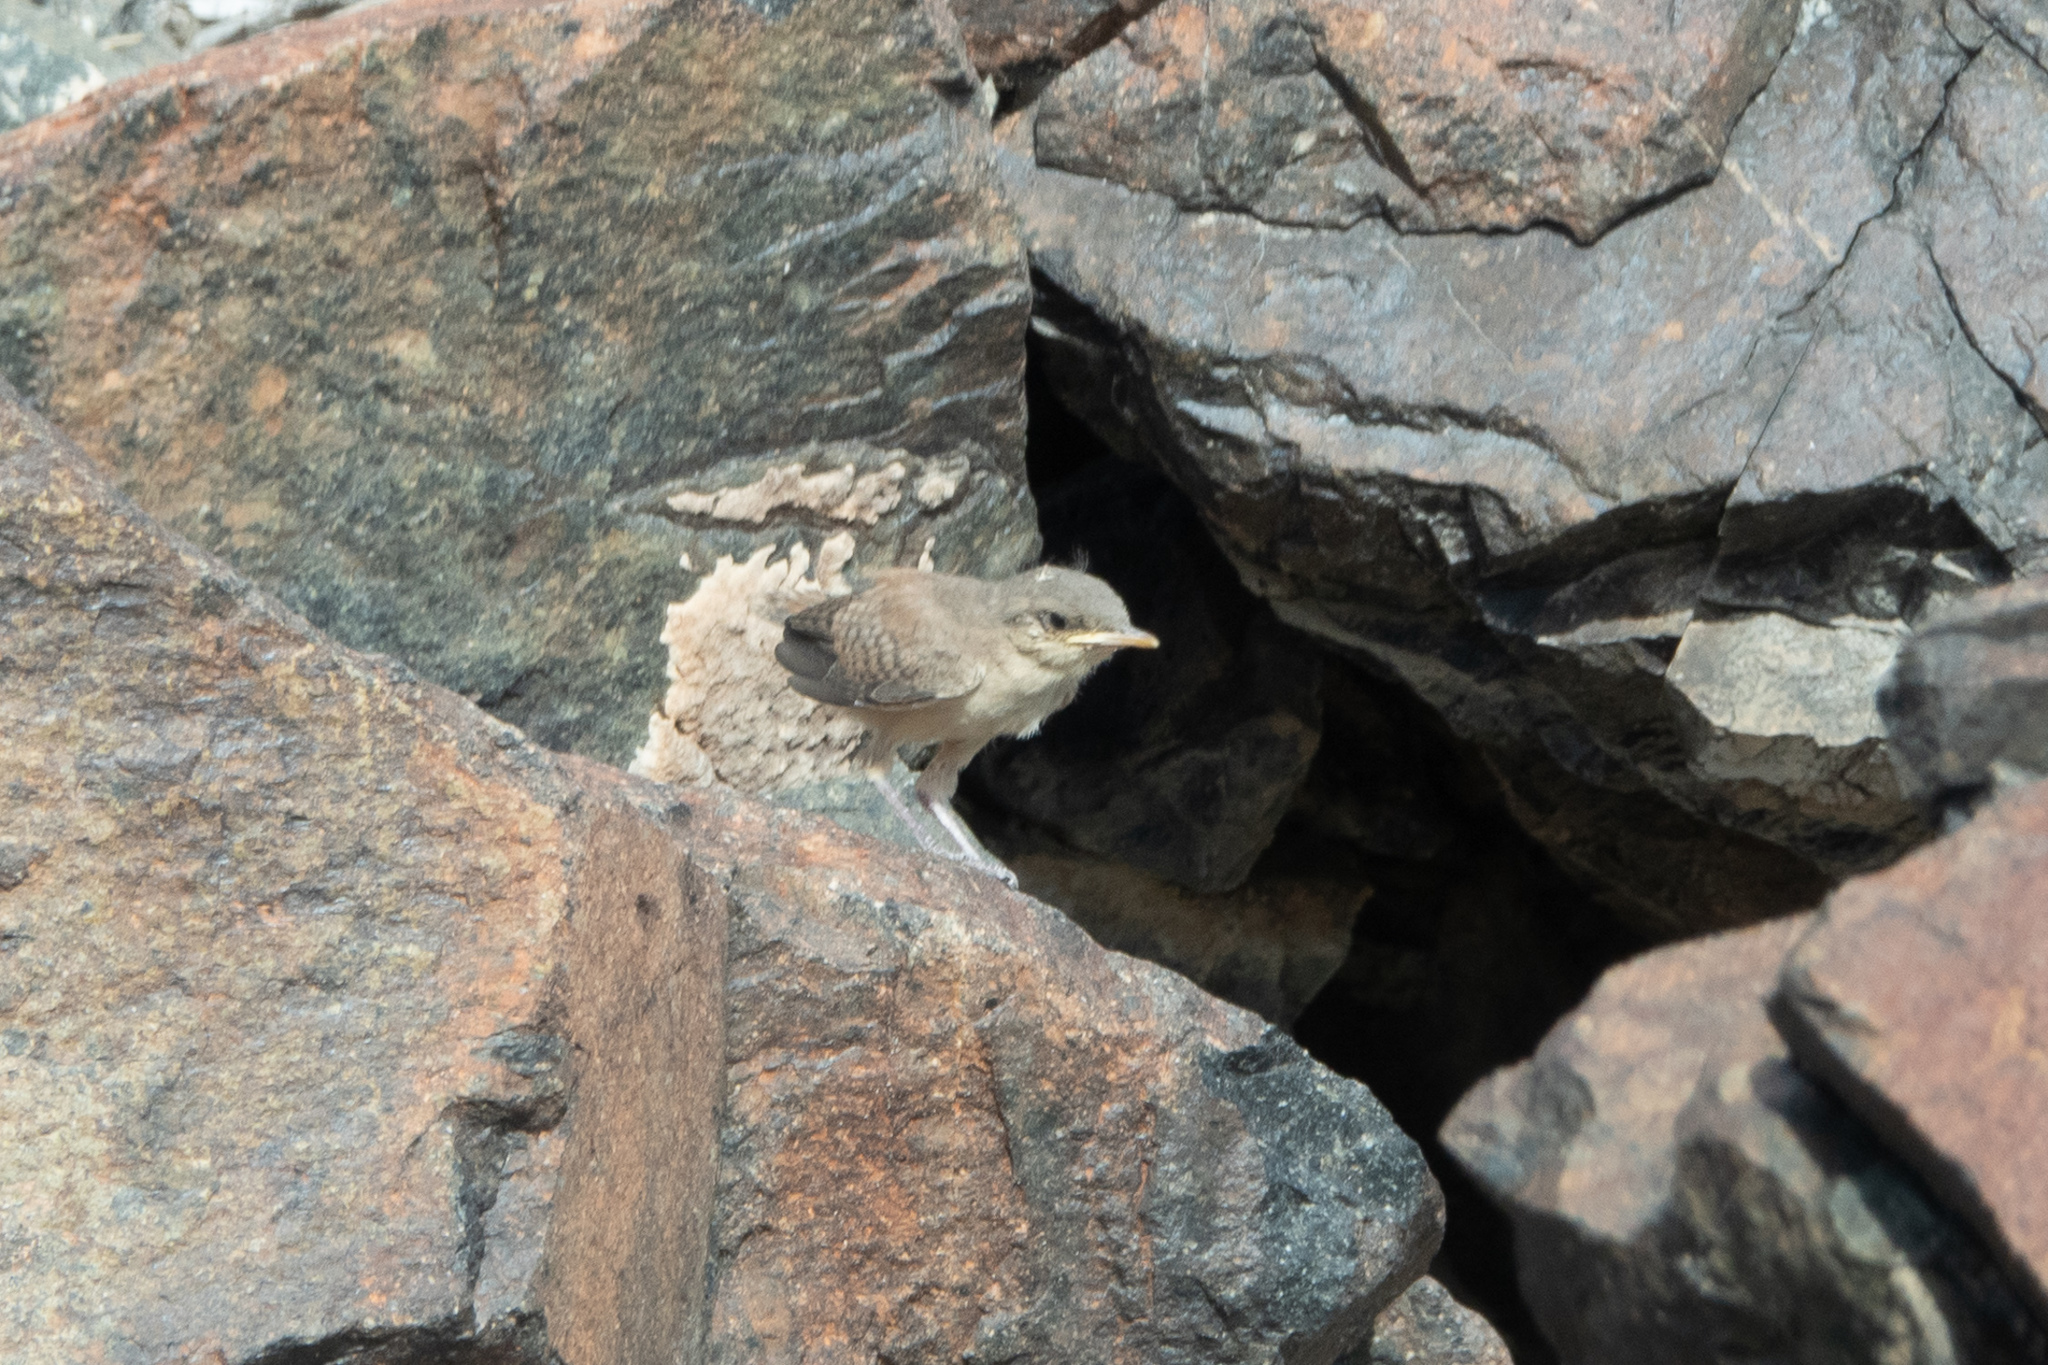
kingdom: Animalia
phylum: Chordata
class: Aves
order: Passeriformes
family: Troglodytidae
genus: Salpinctes
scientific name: Salpinctes obsoletus
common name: Rock wren
